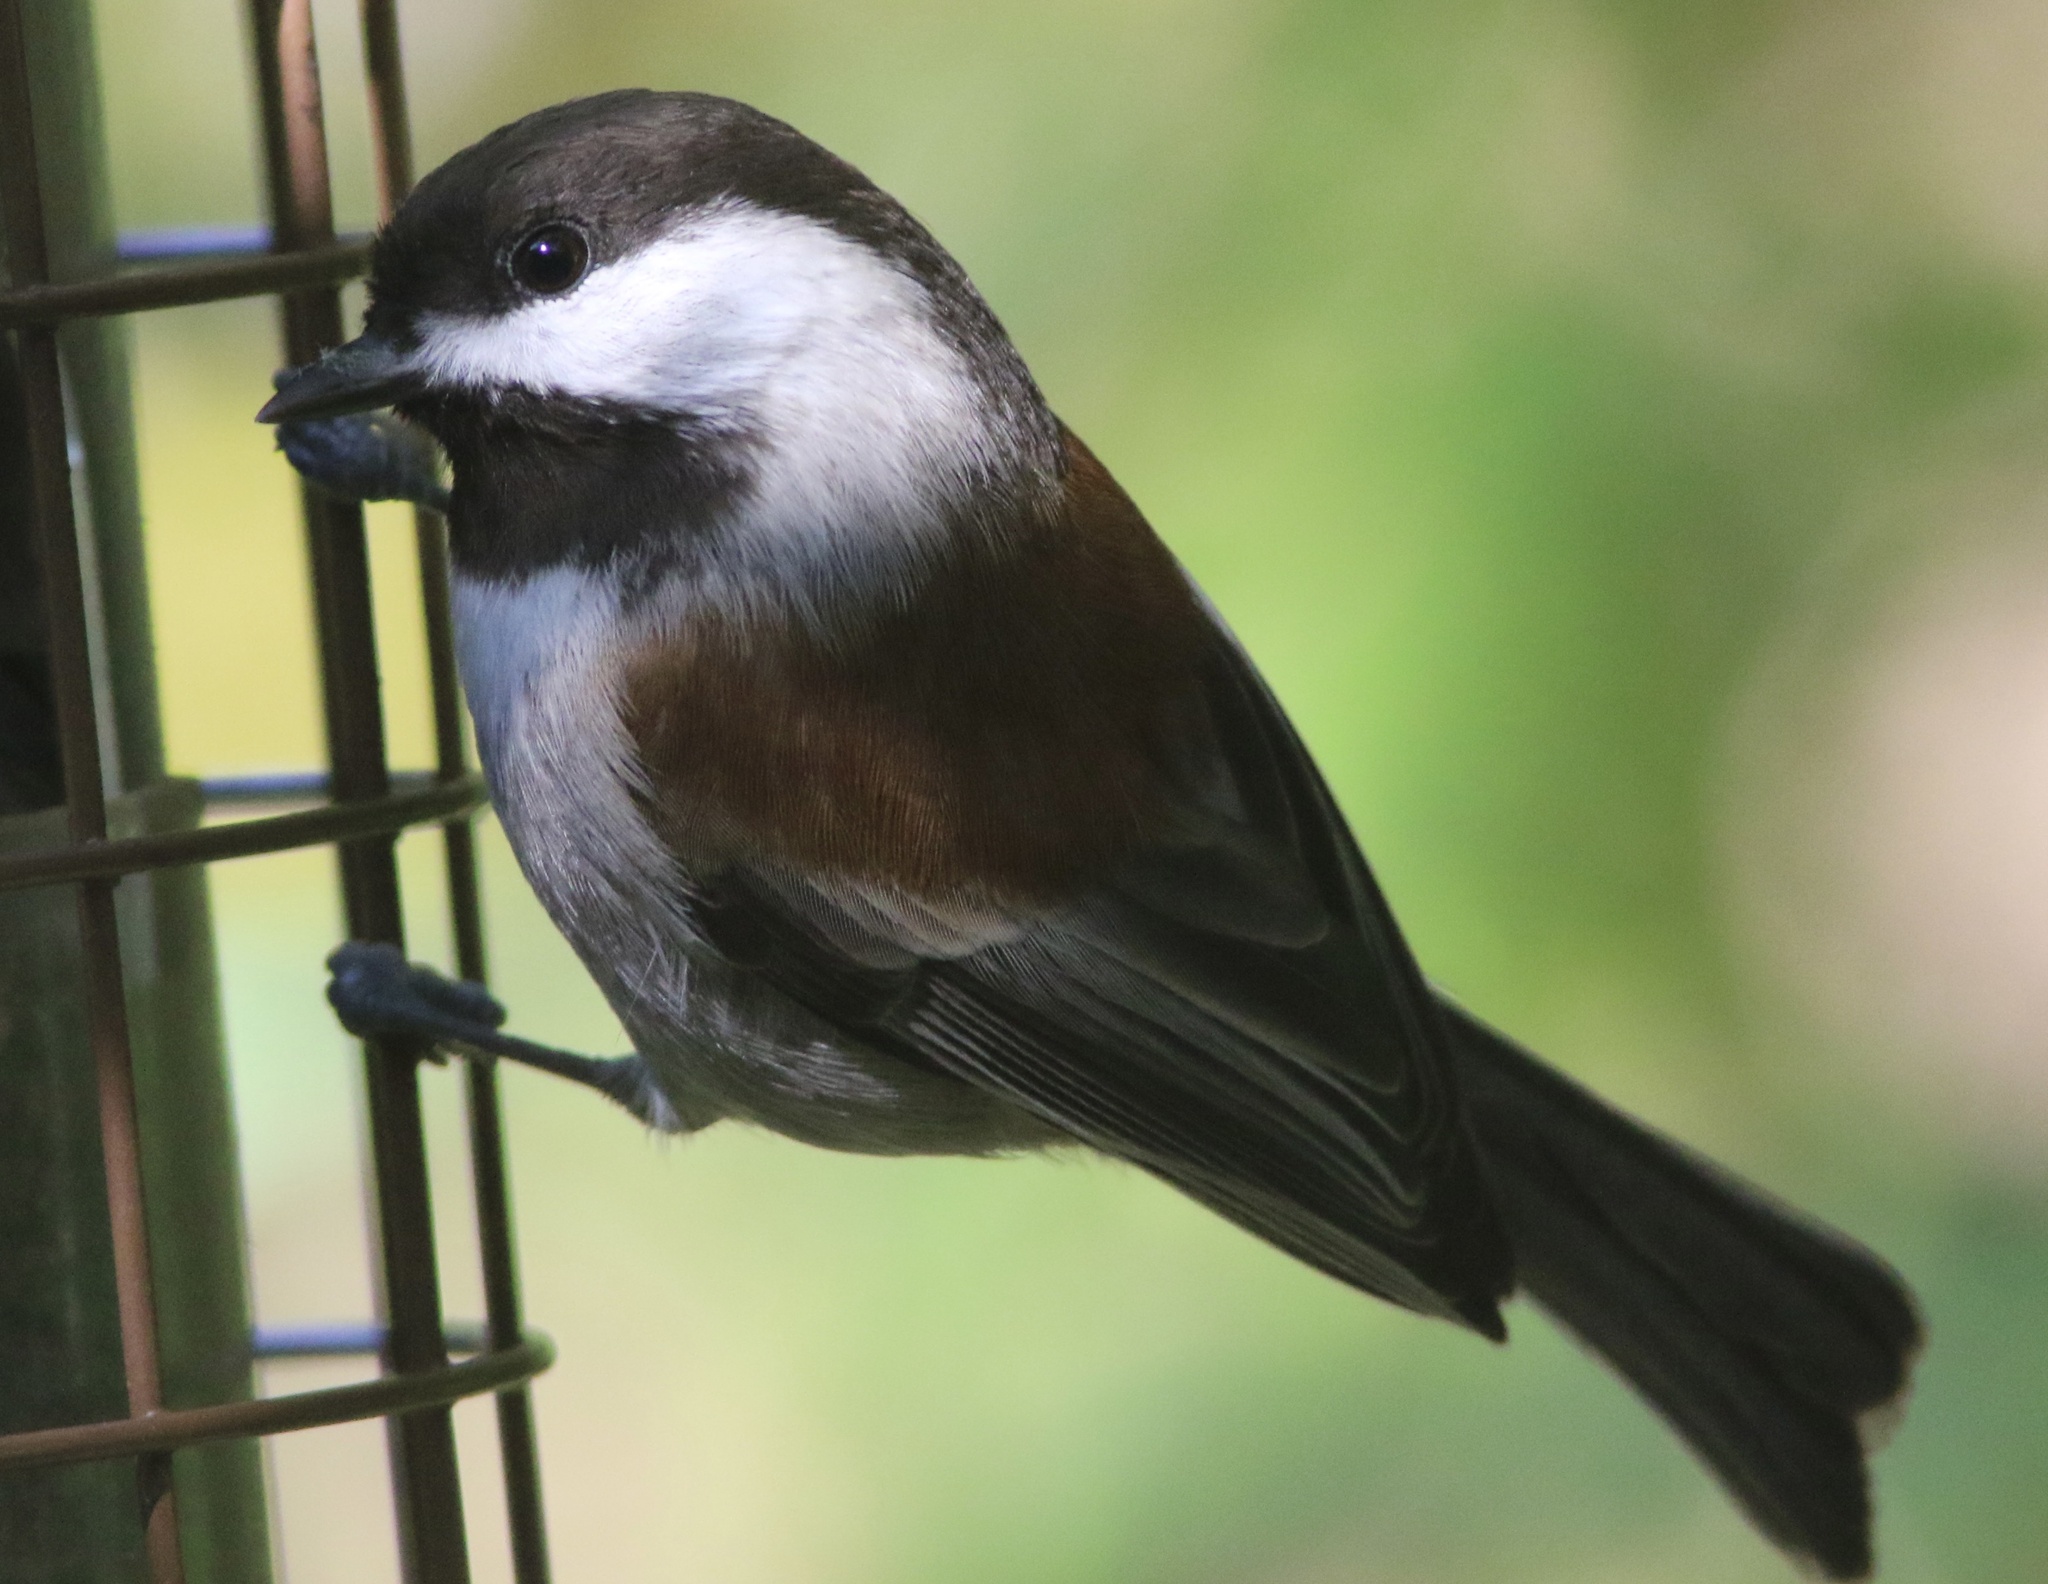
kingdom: Animalia
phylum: Chordata
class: Aves
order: Passeriformes
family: Paridae
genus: Poecile
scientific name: Poecile rufescens
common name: Chestnut-backed chickadee
